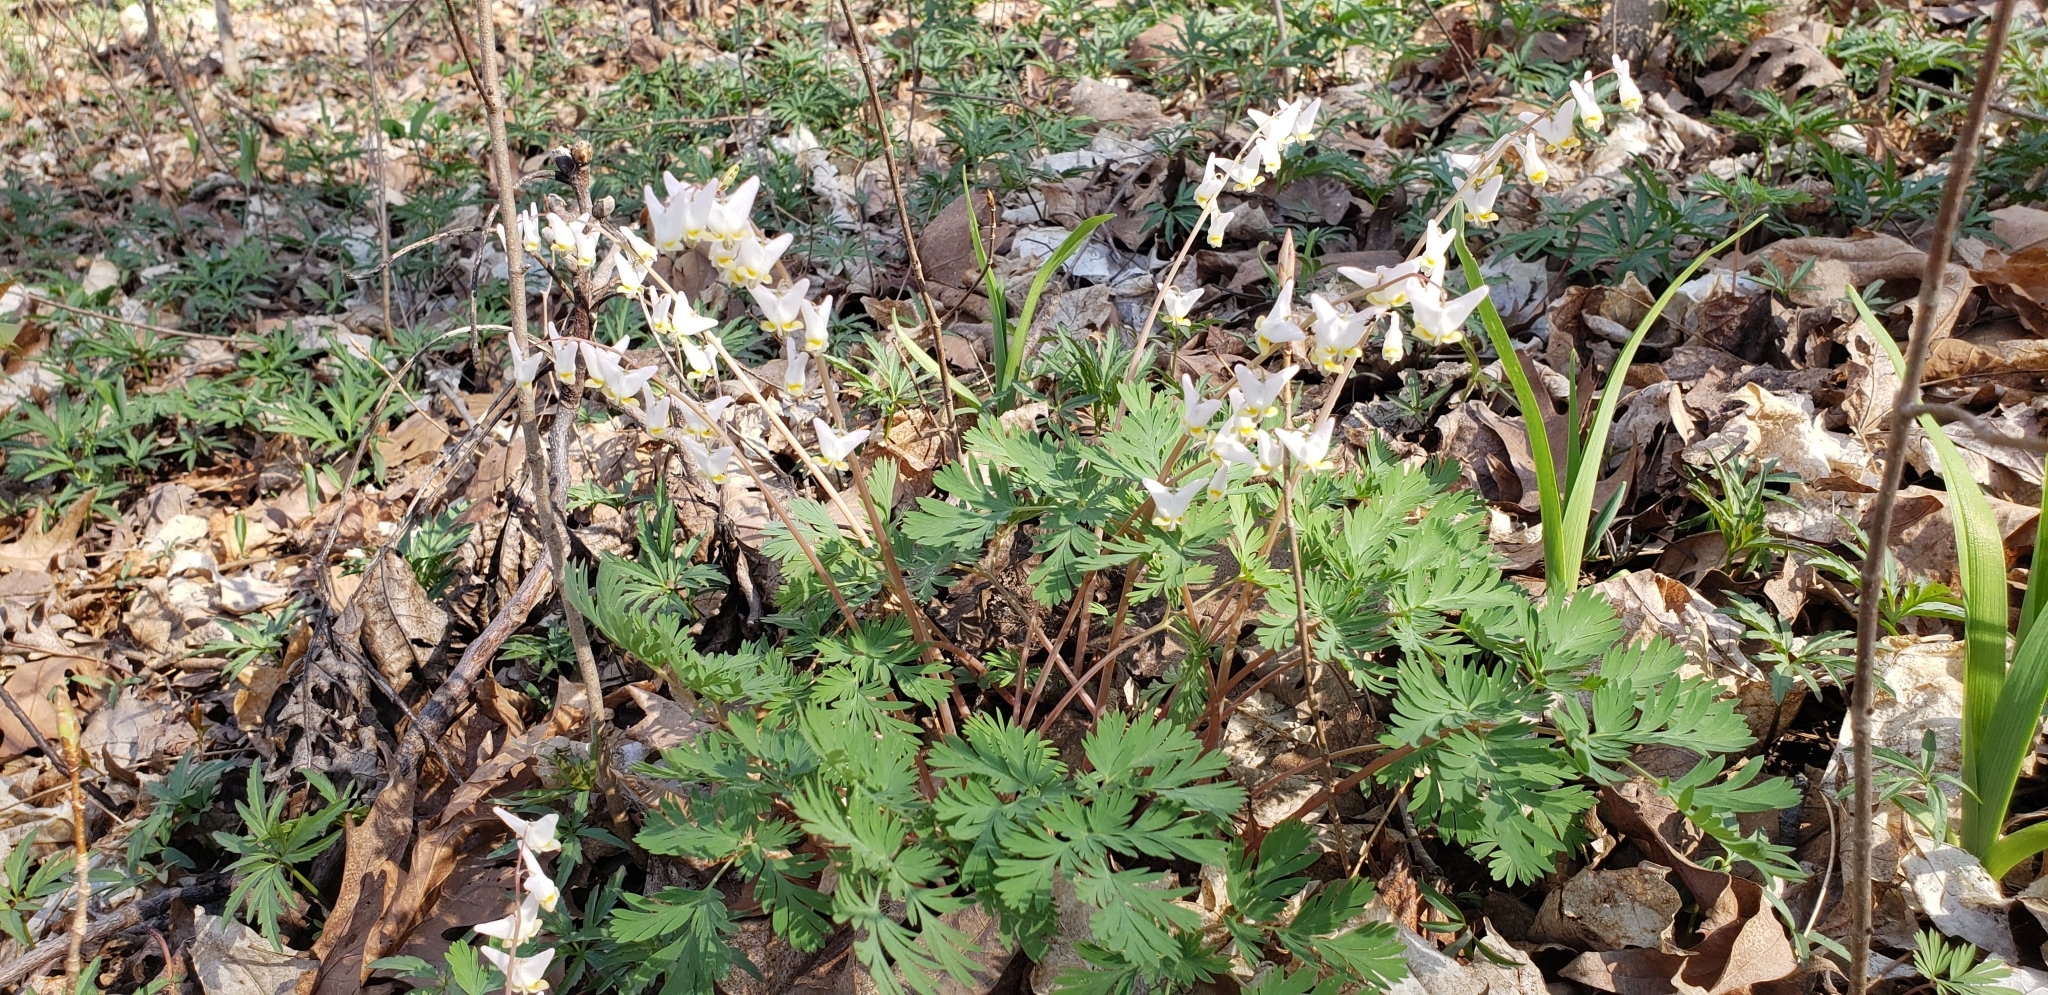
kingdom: Plantae
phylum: Tracheophyta
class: Magnoliopsida
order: Ranunculales
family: Papaveraceae
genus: Dicentra
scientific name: Dicentra cucullaria
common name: Dutchman's breeches
